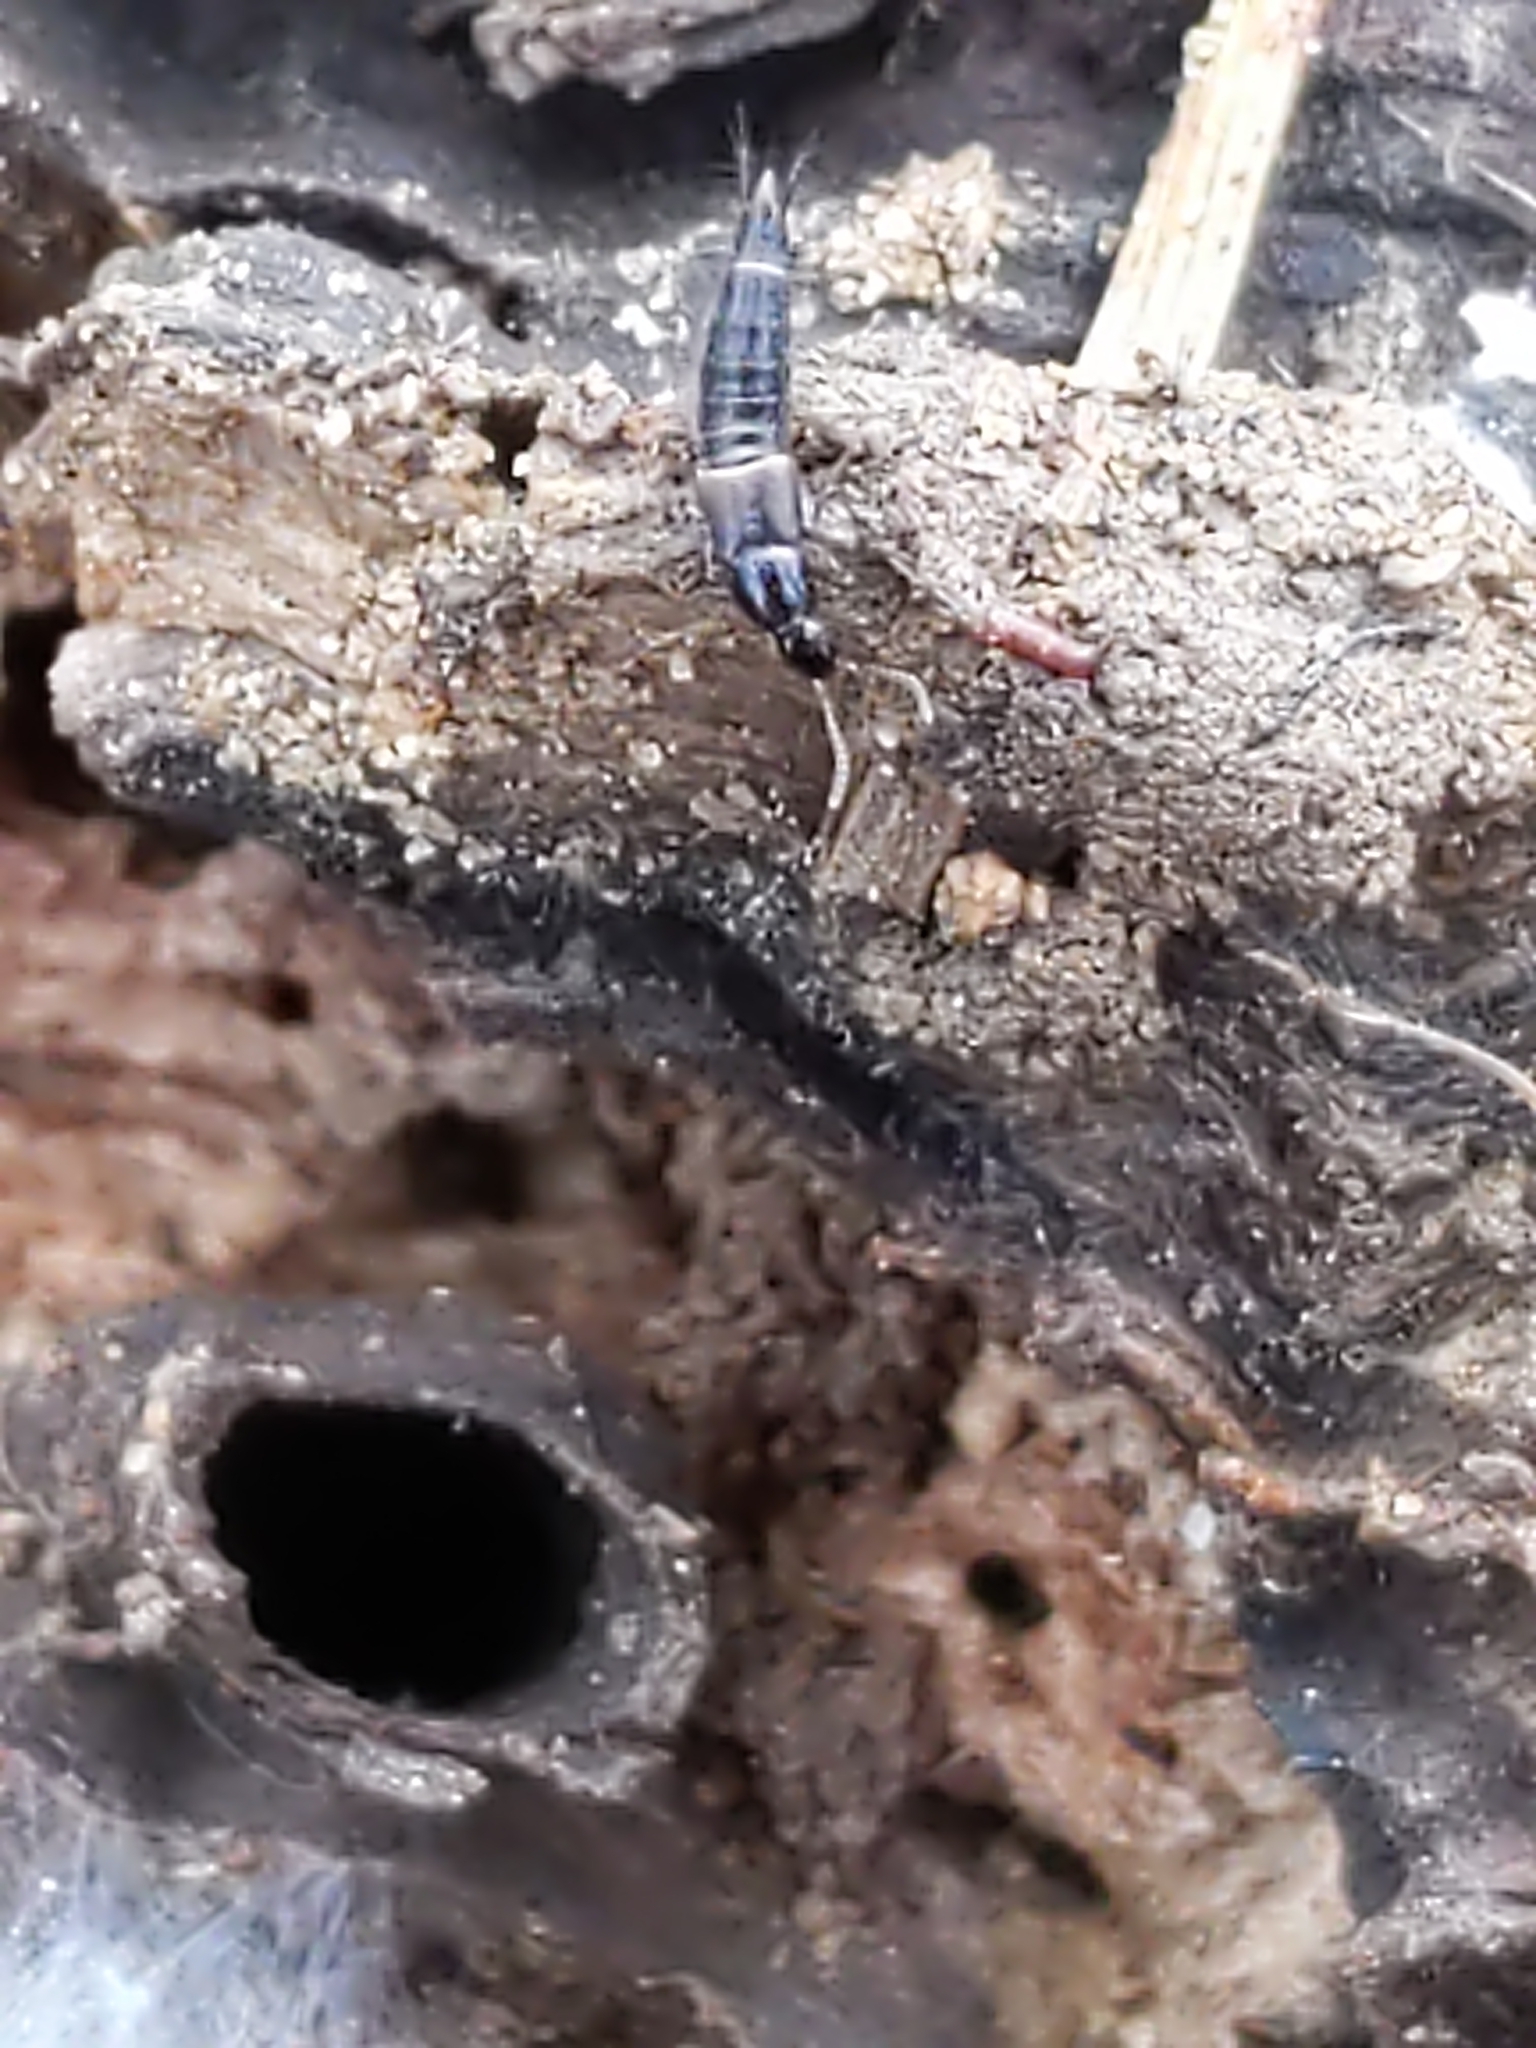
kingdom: Animalia
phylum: Arthropoda
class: Insecta
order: Coleoptera
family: Staphylinidae
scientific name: Staphylinidae
